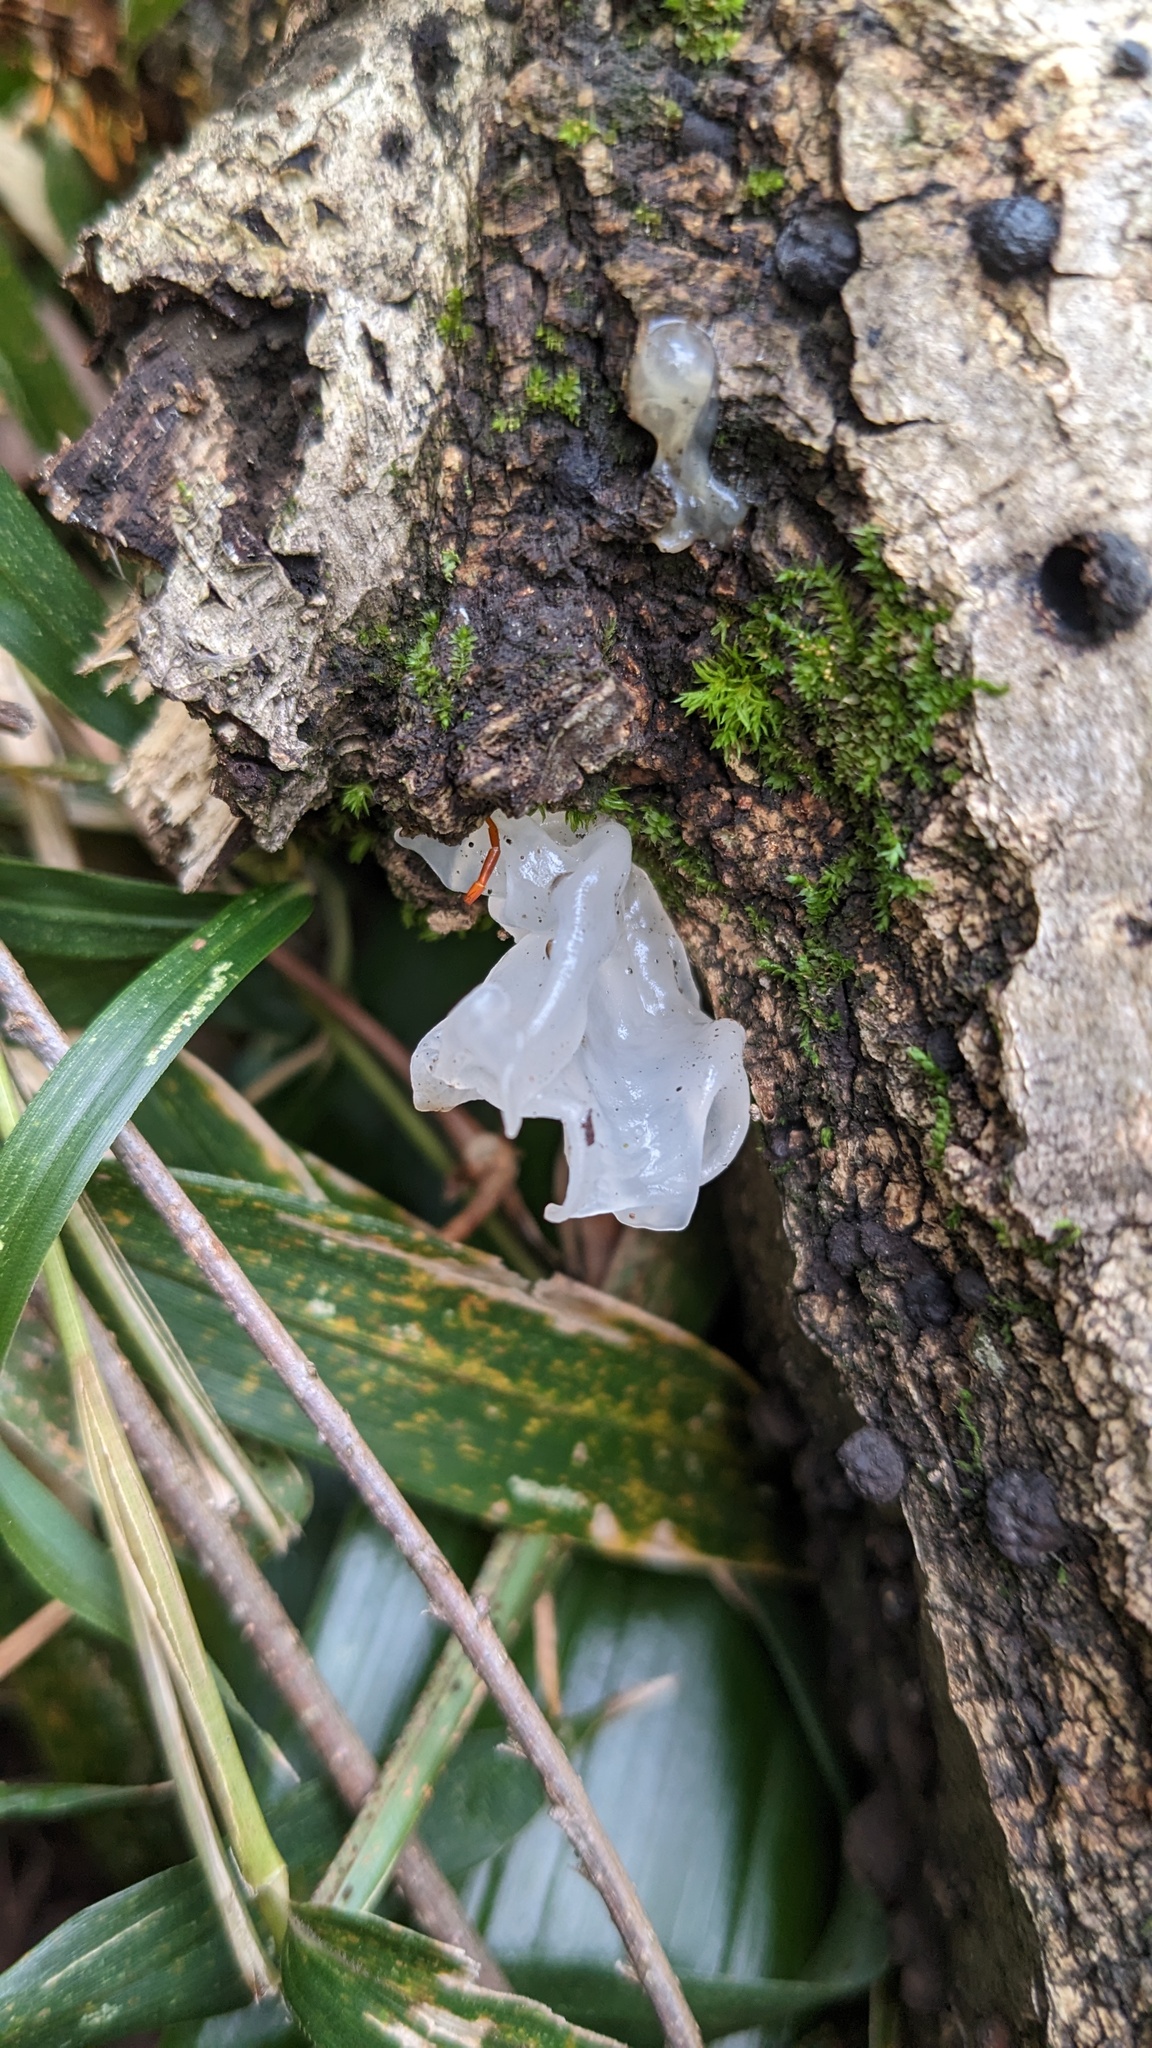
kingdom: Fungi
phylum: Basidiomycota
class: Tremellomycetes
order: Tremellales
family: Tremellaceae
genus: Tremella
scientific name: Tremella fuciformis
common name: Snow fungus
